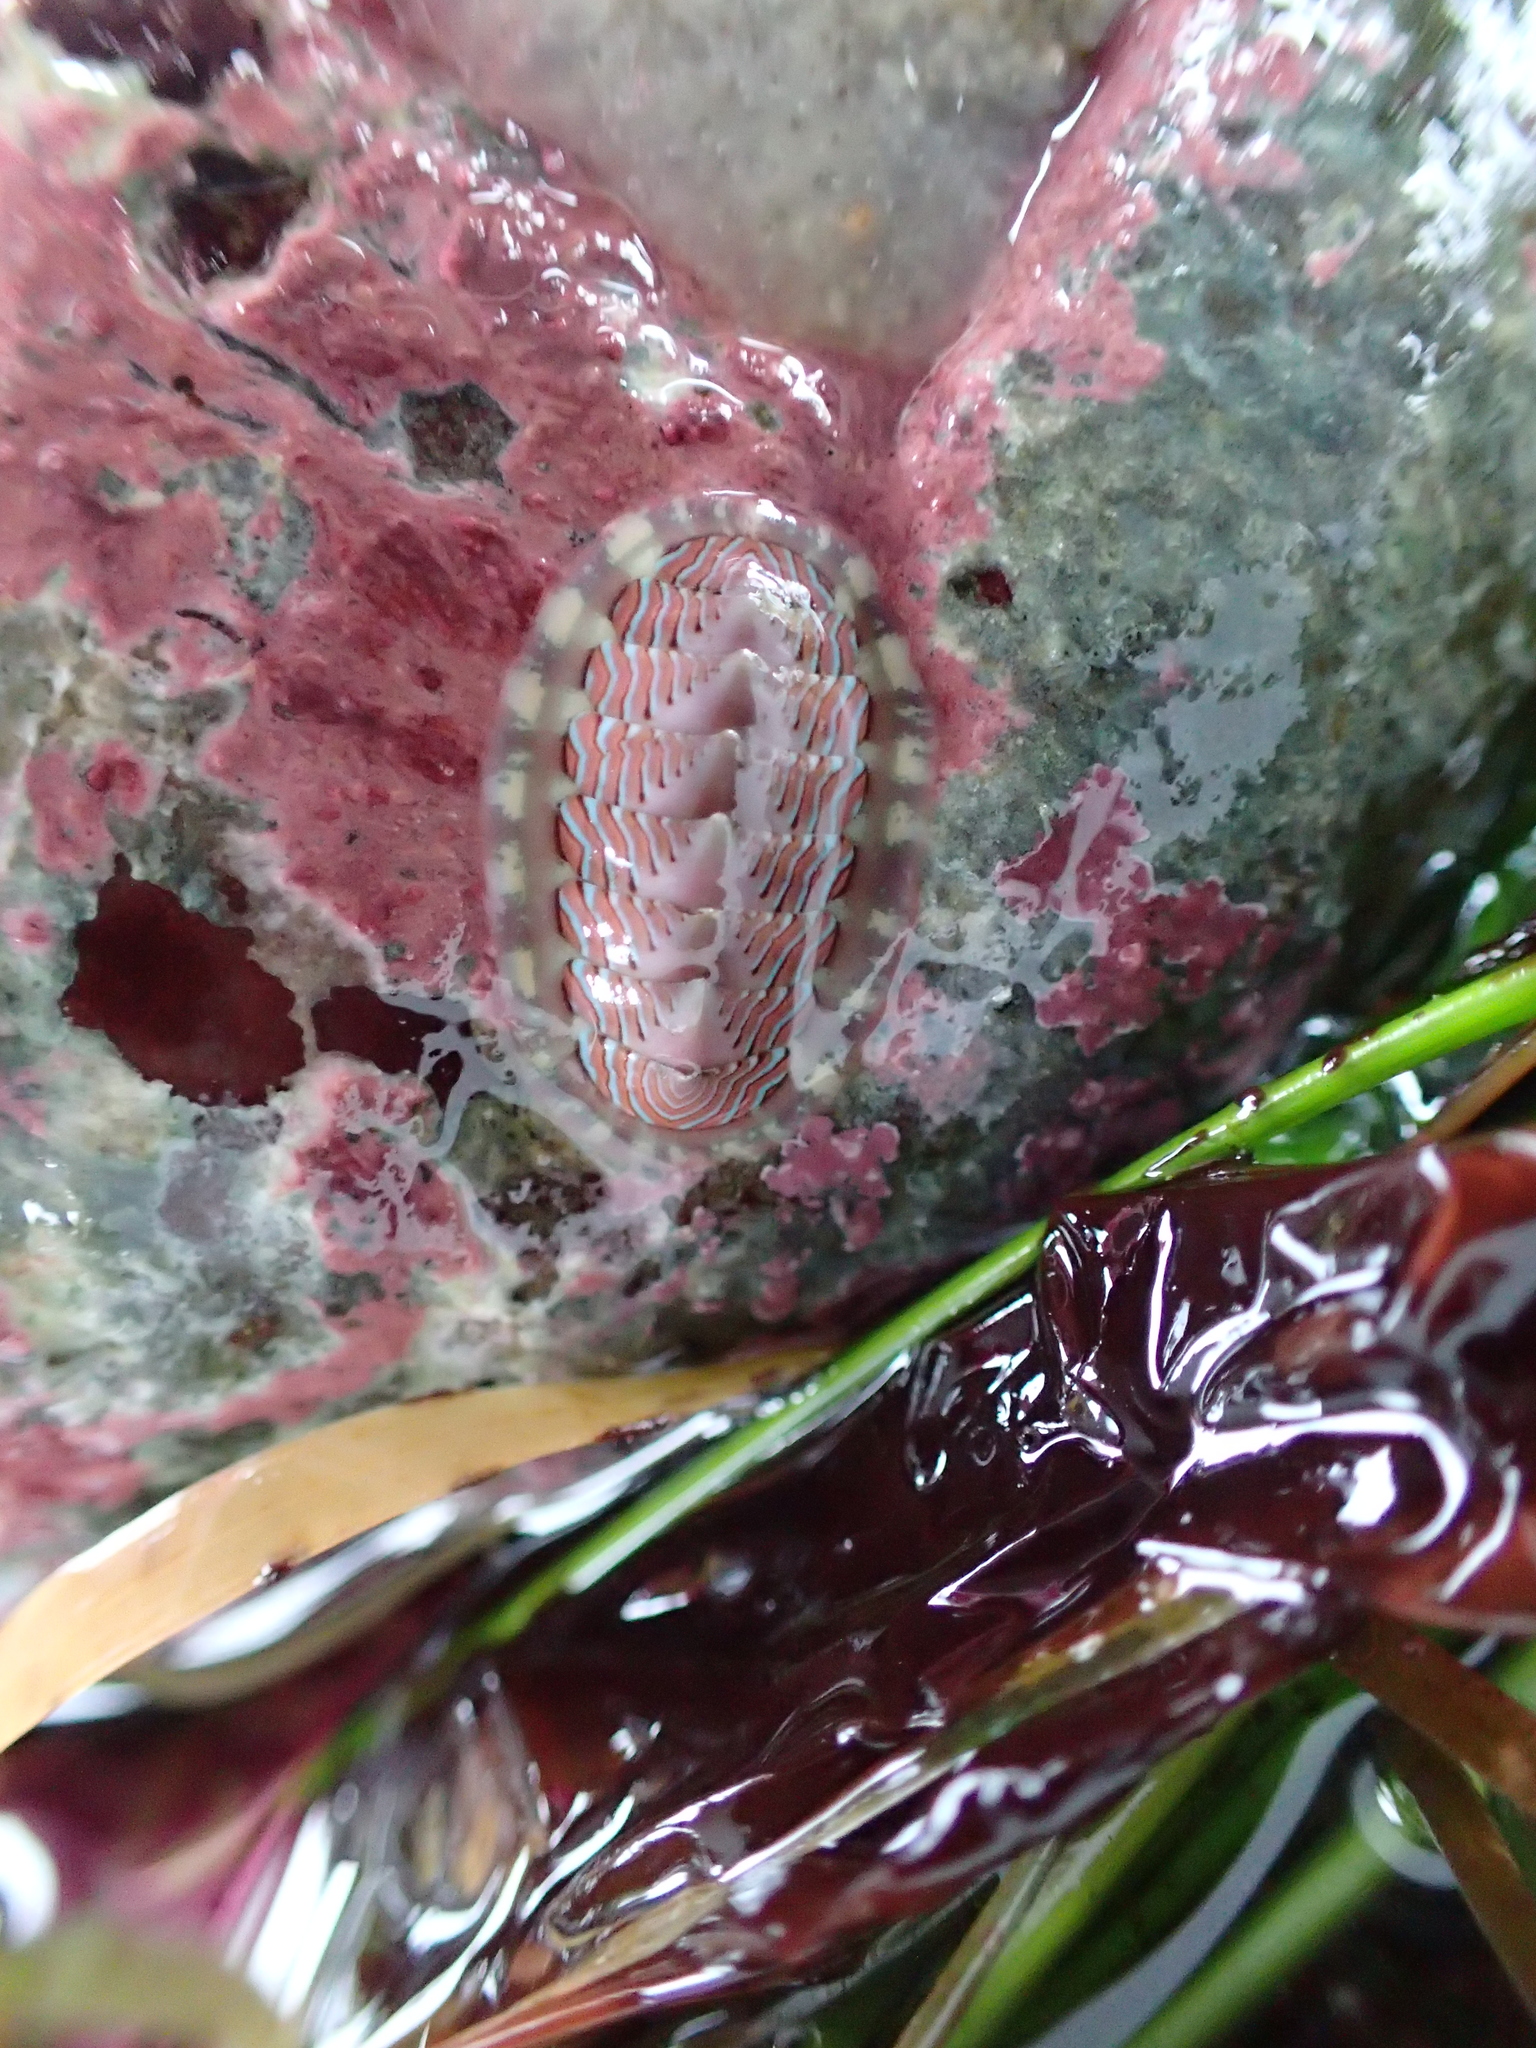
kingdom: Animalia
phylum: Mollusca
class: Polyplacophora
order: Chitonida
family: Tonicellidae
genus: Tonicella
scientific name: Tonicella lineata
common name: Lined chiton
